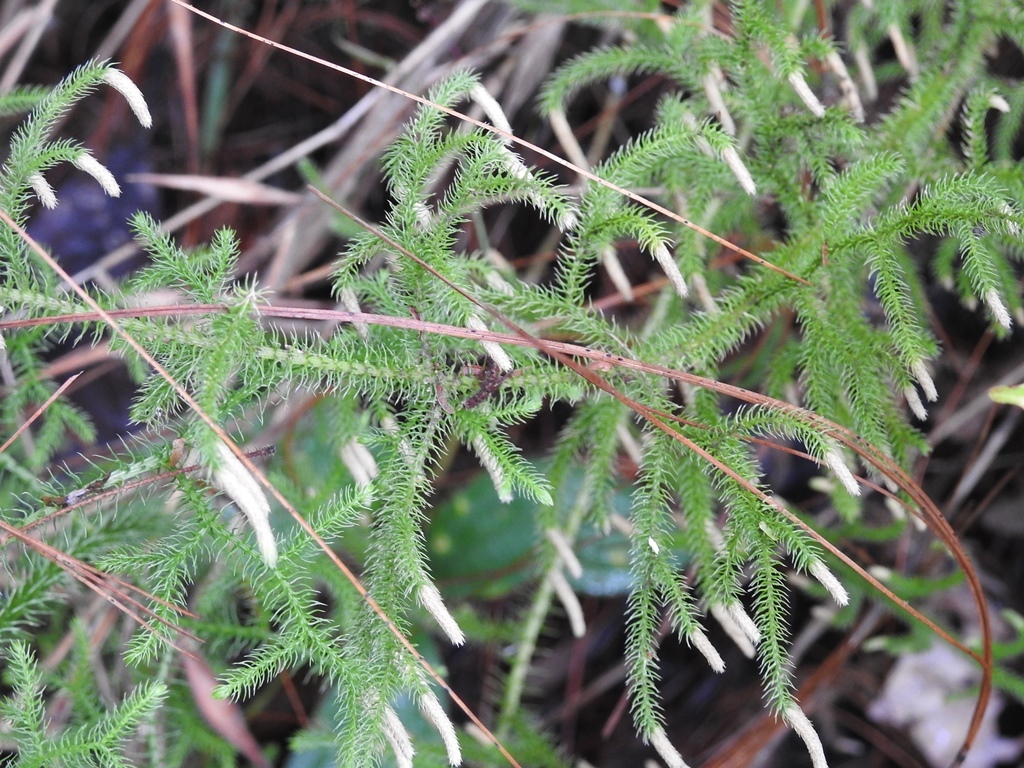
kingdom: Plantae
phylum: Tracheophyta
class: Lycopodiopsida
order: Lycopodiales
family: Lycopodiaceae
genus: Palhinhaea
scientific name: Palhinhaea cernua
